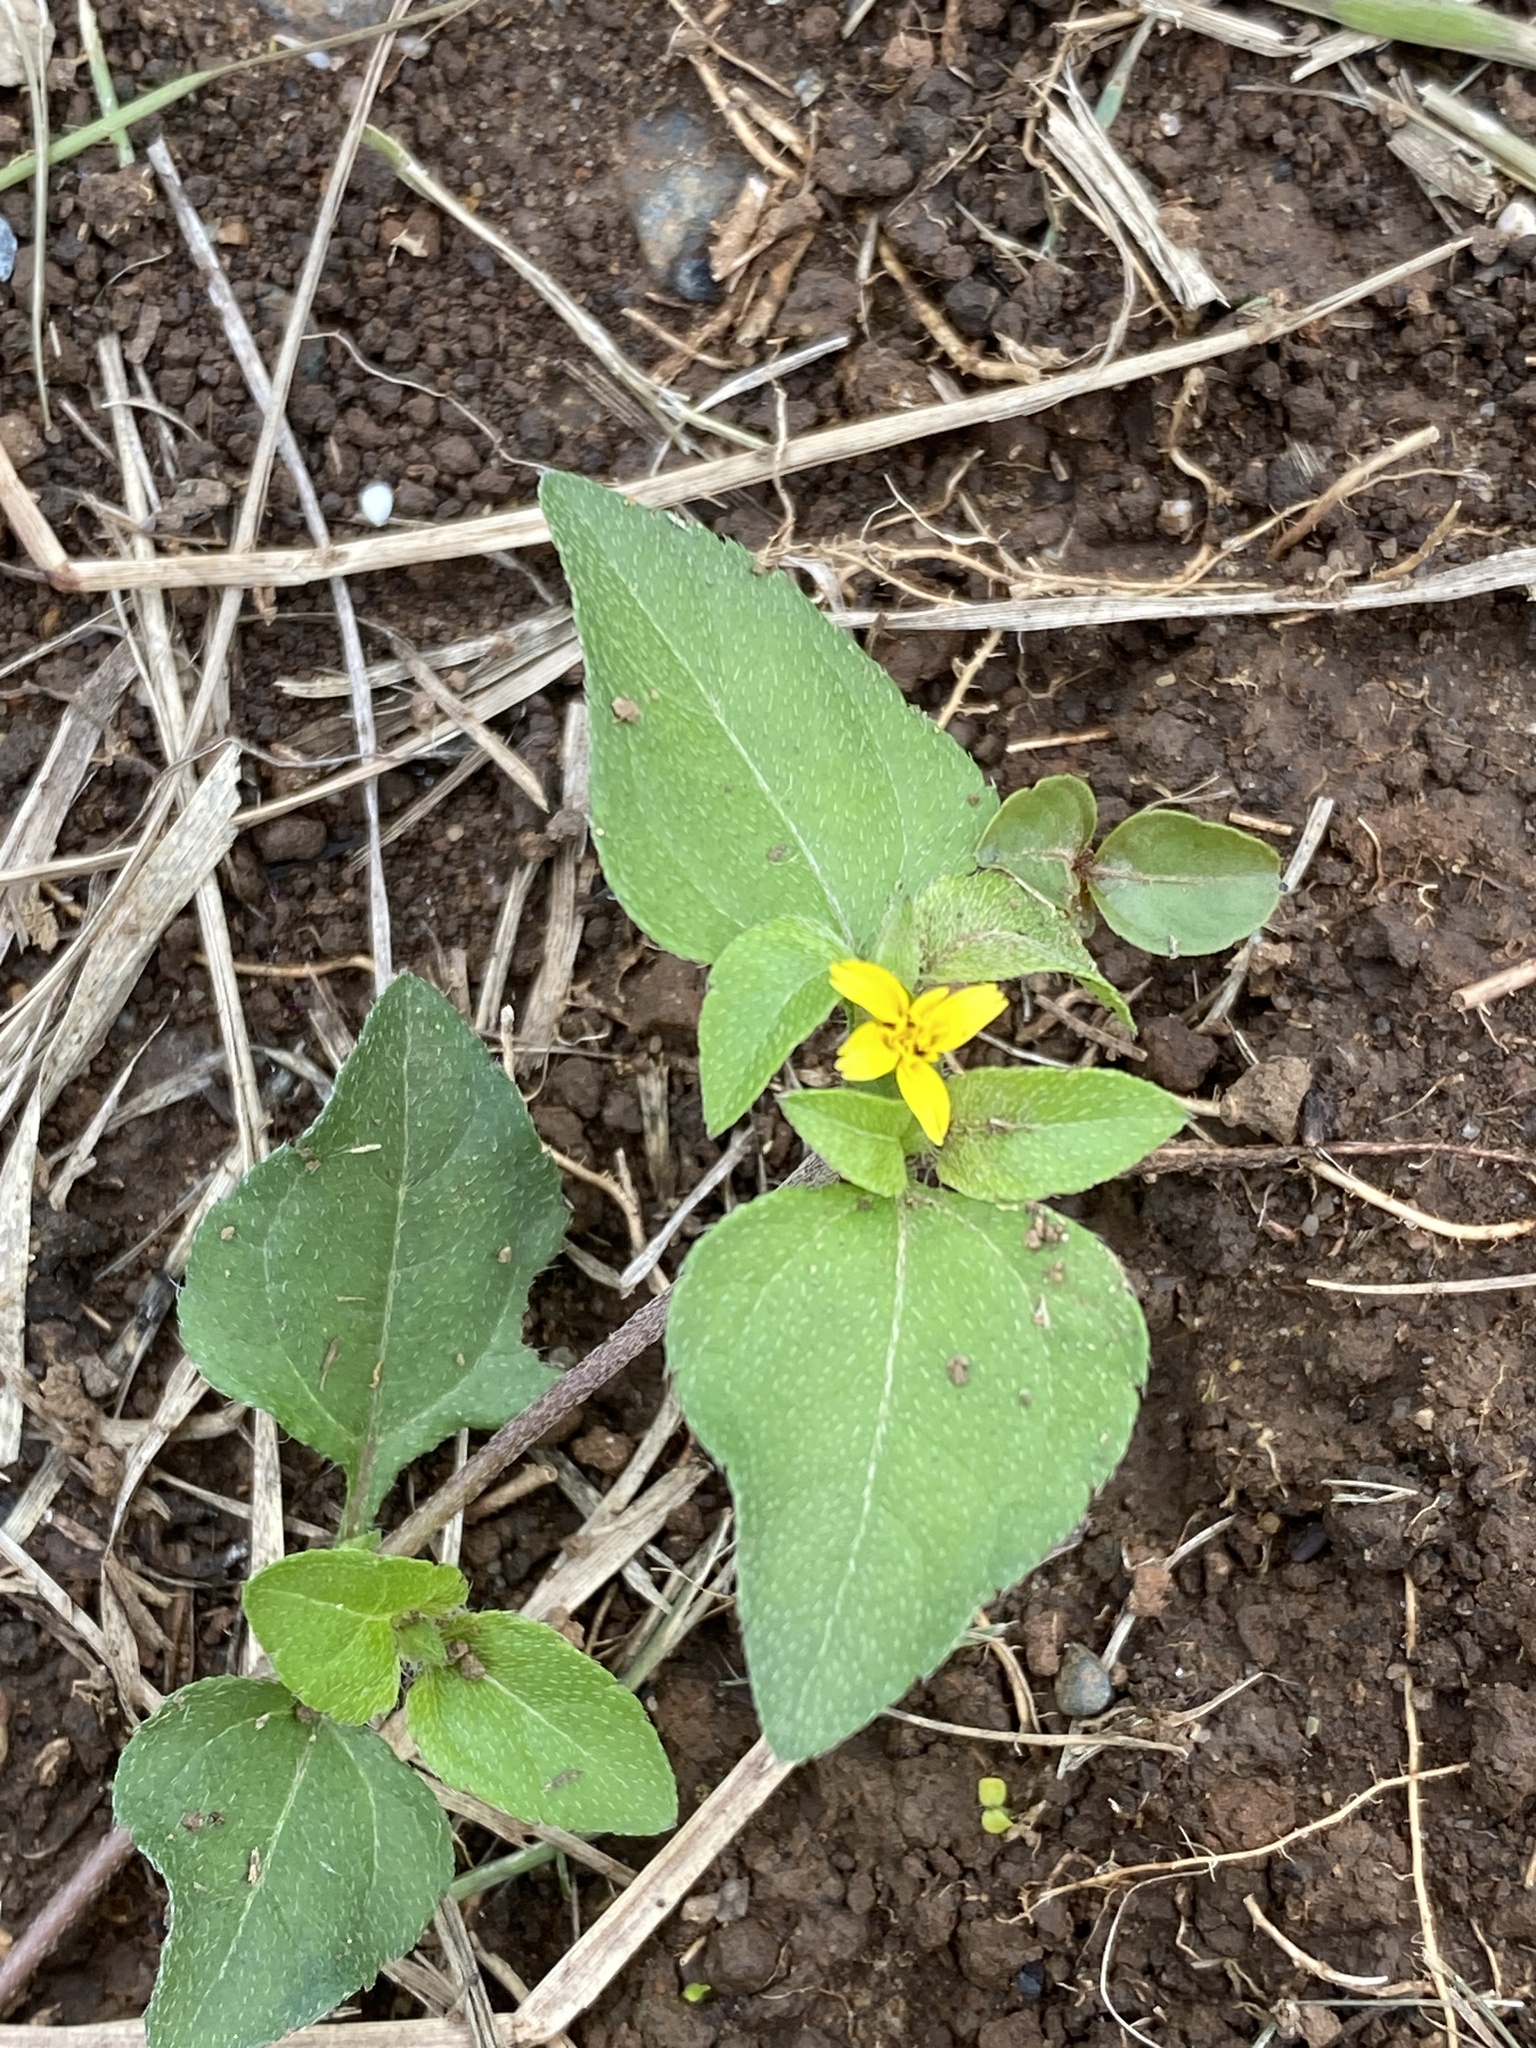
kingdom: Plantae
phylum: Tracheophyta
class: Magnoliopsida
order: Asterales
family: Asteraceae
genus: Calyptocarpus
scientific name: Calyptocarpus vialis
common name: Straggler daisy
